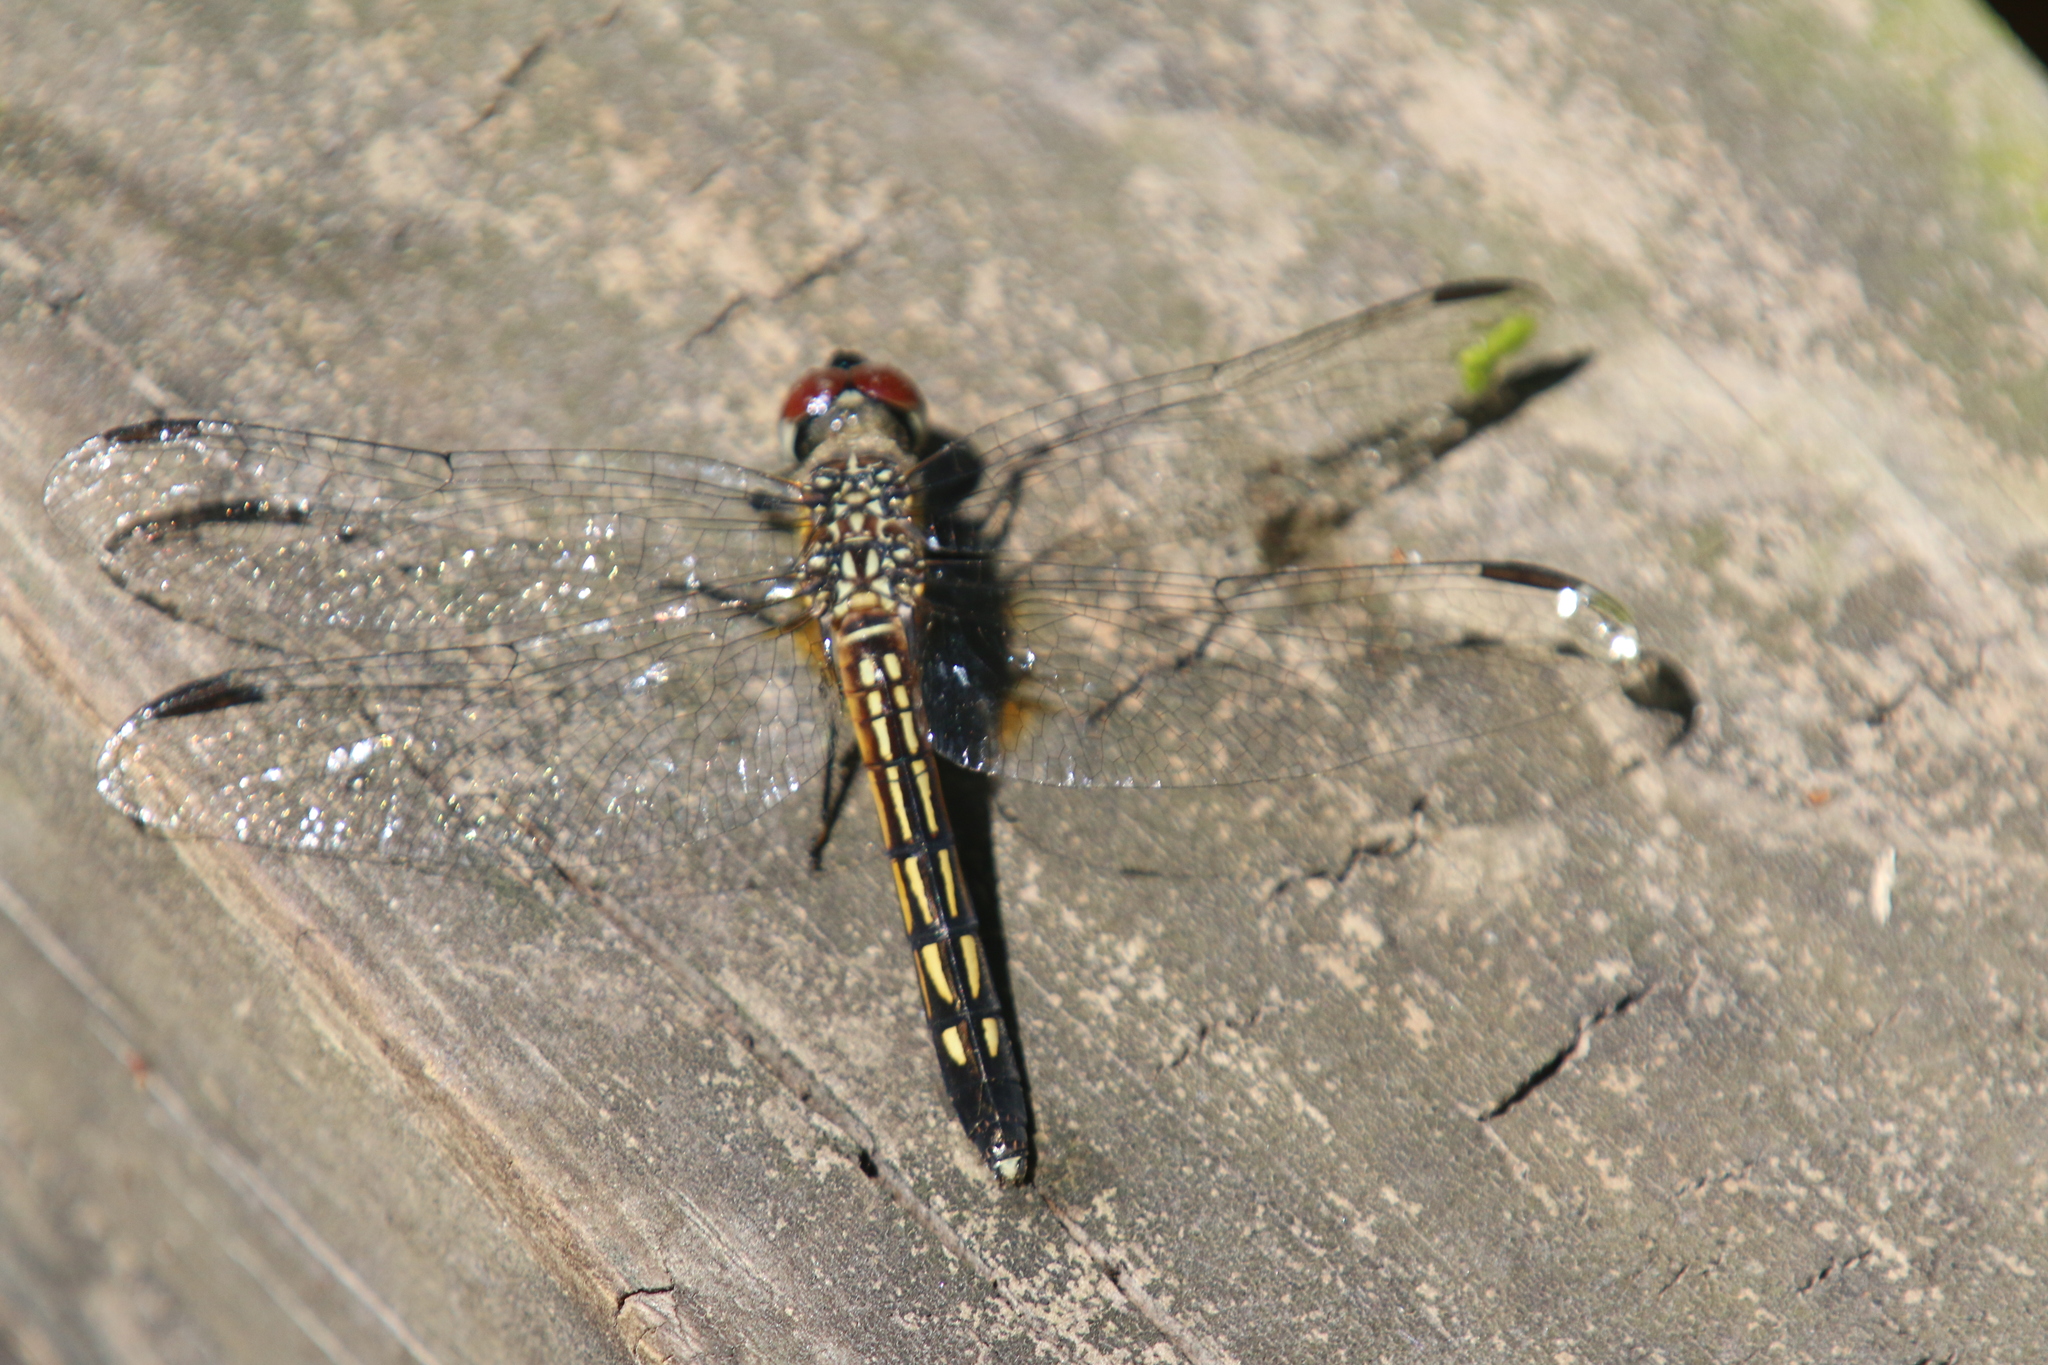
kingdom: Animalia
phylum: Arthropoda
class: Insecta
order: Odonata
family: Libellulidae
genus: Pachydiplax
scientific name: Pachydiplax longipennis
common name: Blue dasher
